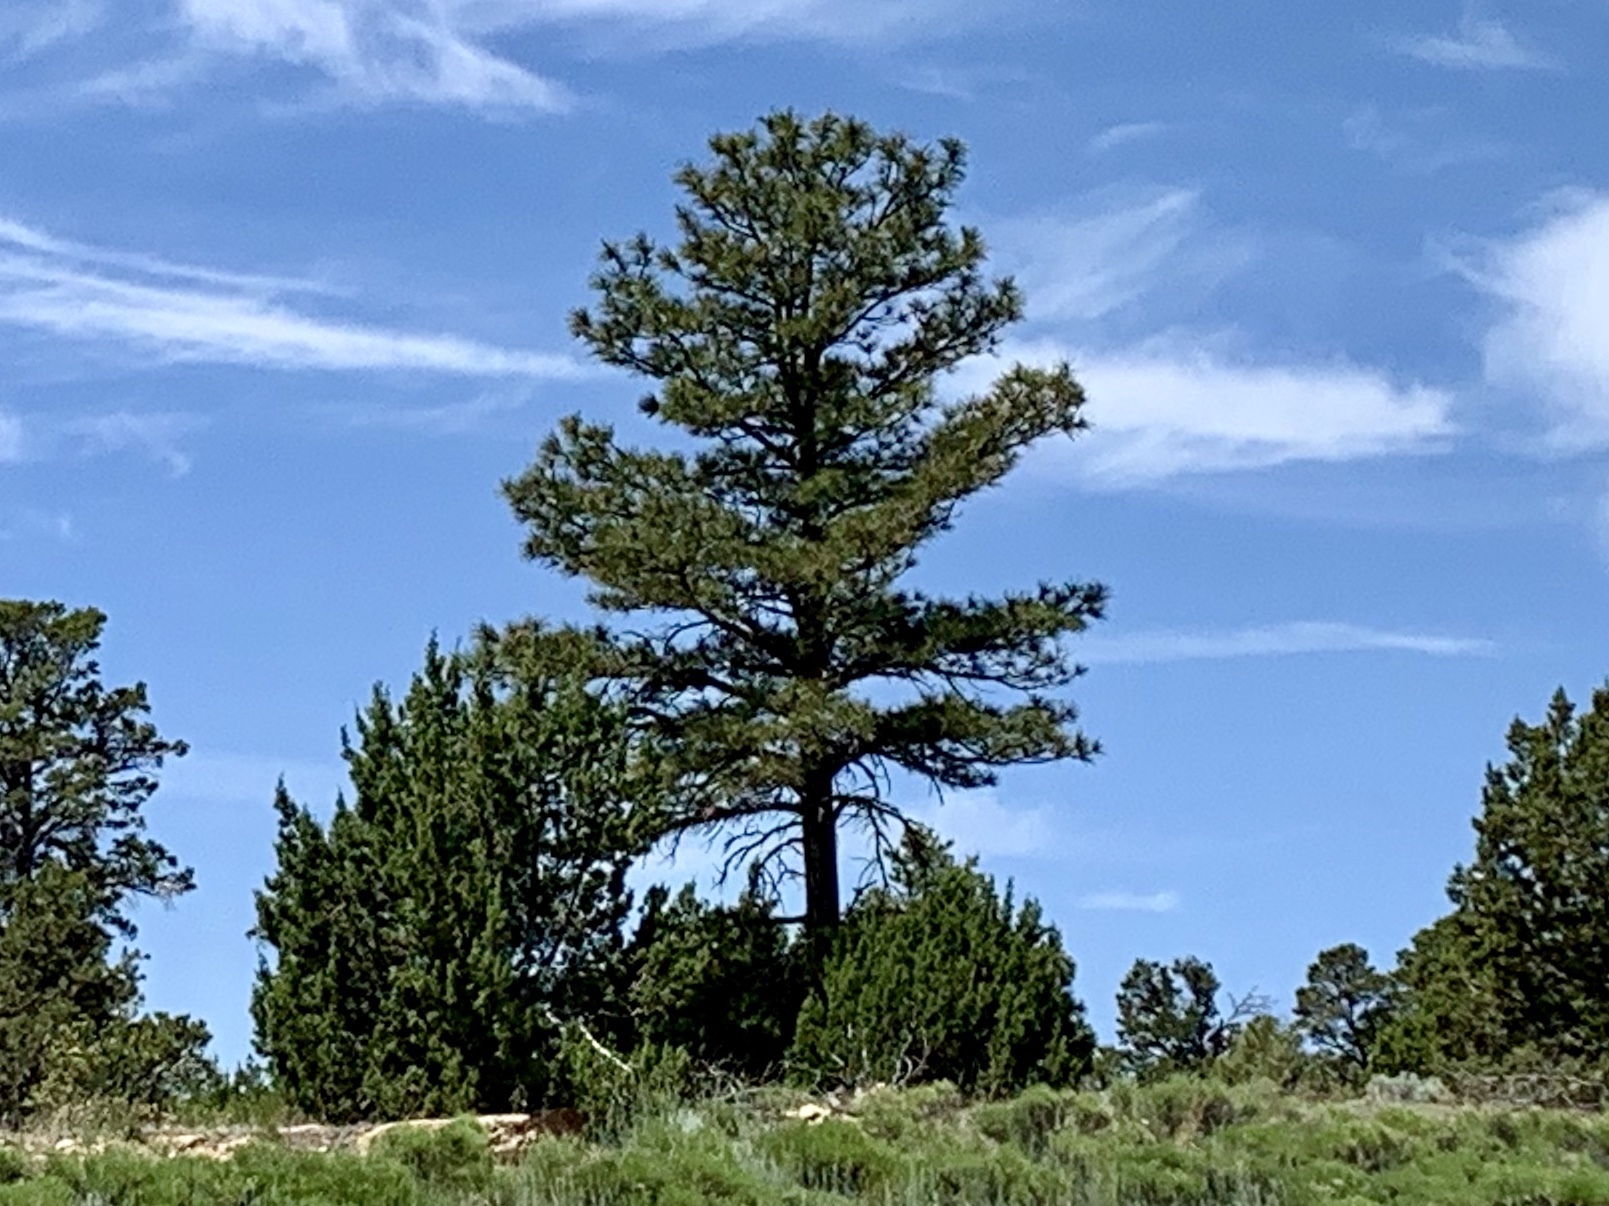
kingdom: Plantae
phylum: Tracheophyta
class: Pinopsida
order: Pinales
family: Pinaceae
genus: Pinus
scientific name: Pinus ponderosa
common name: Western yellow-pine
